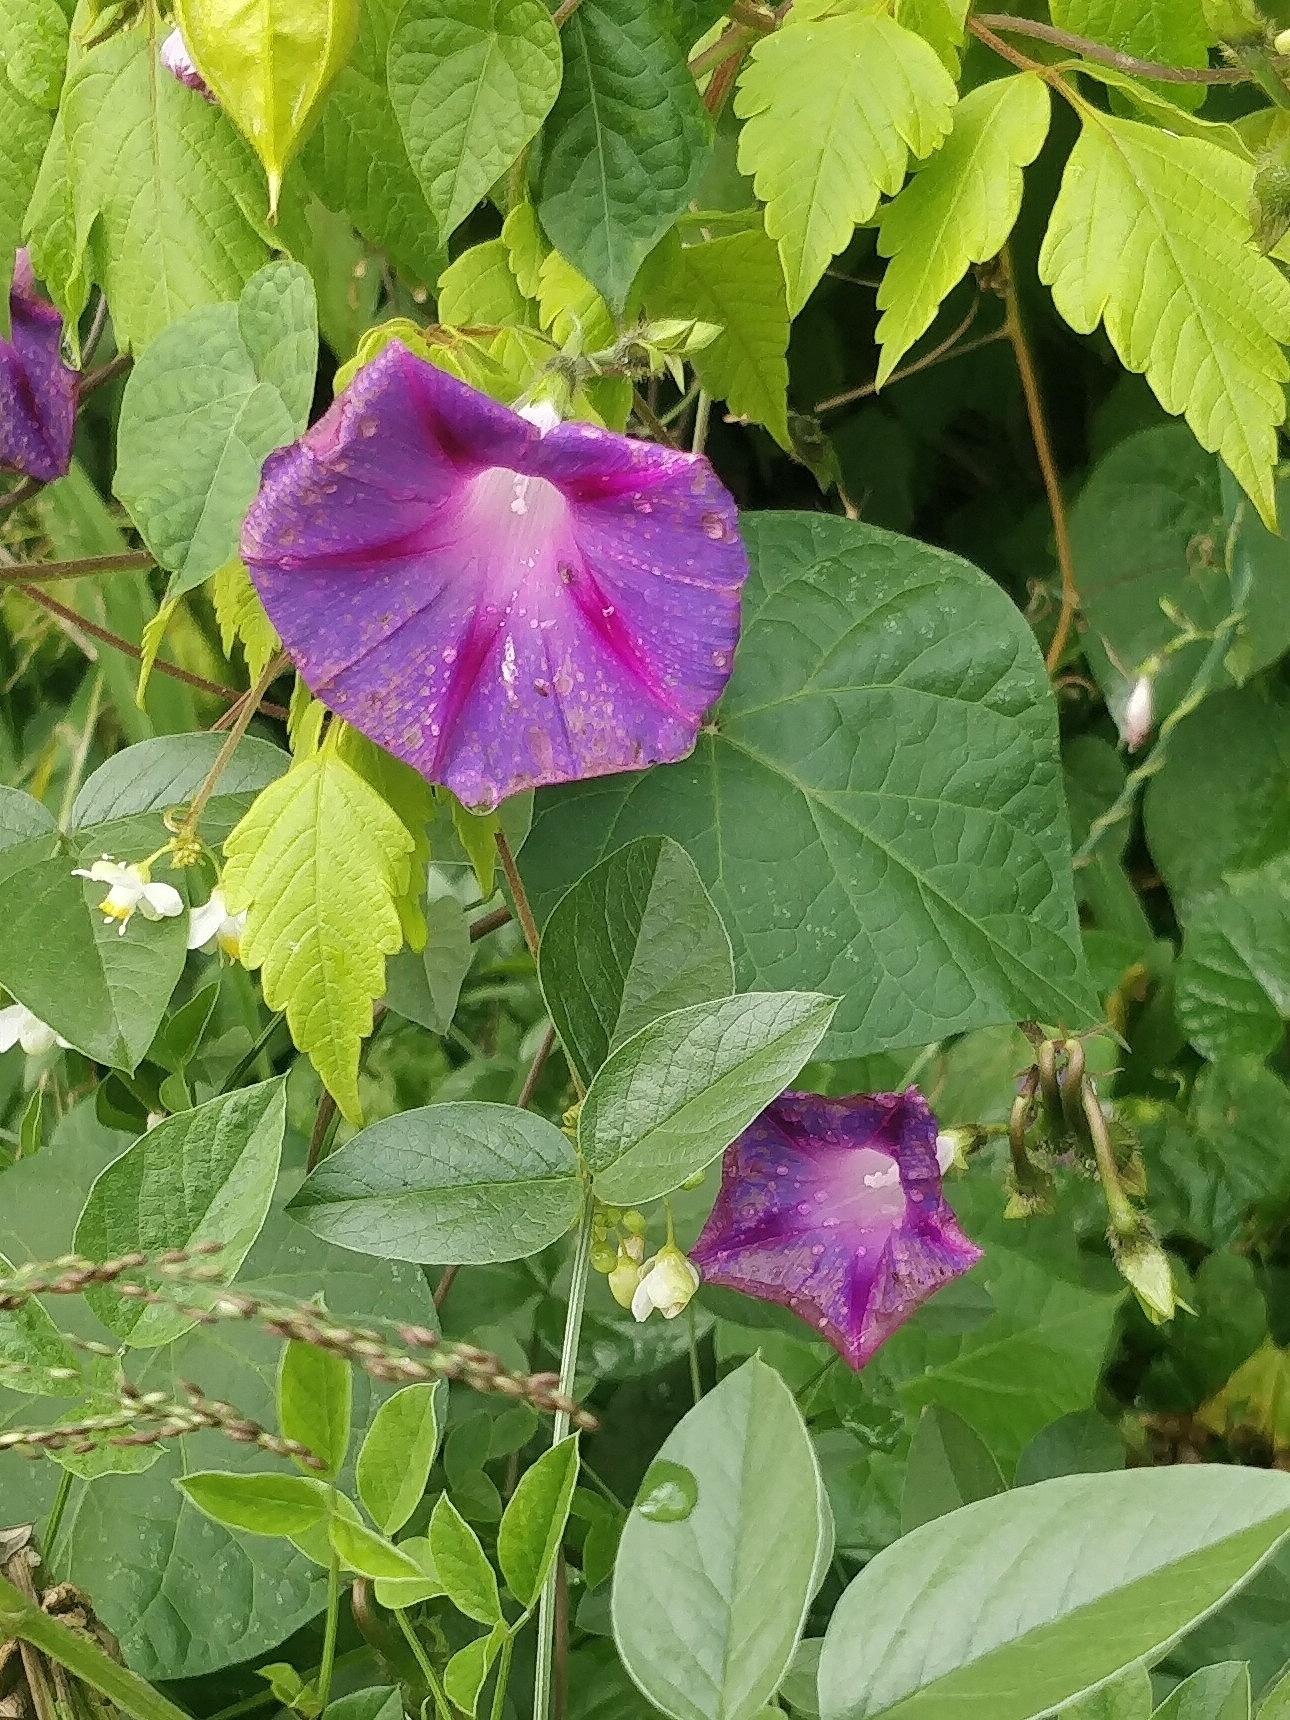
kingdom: Plantae
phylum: Tracheophyta
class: Magnoliopsida
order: Solanales
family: Convolvulaceae
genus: Ipomoea
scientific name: Ipomoea purpurea
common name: Common morning-glory
